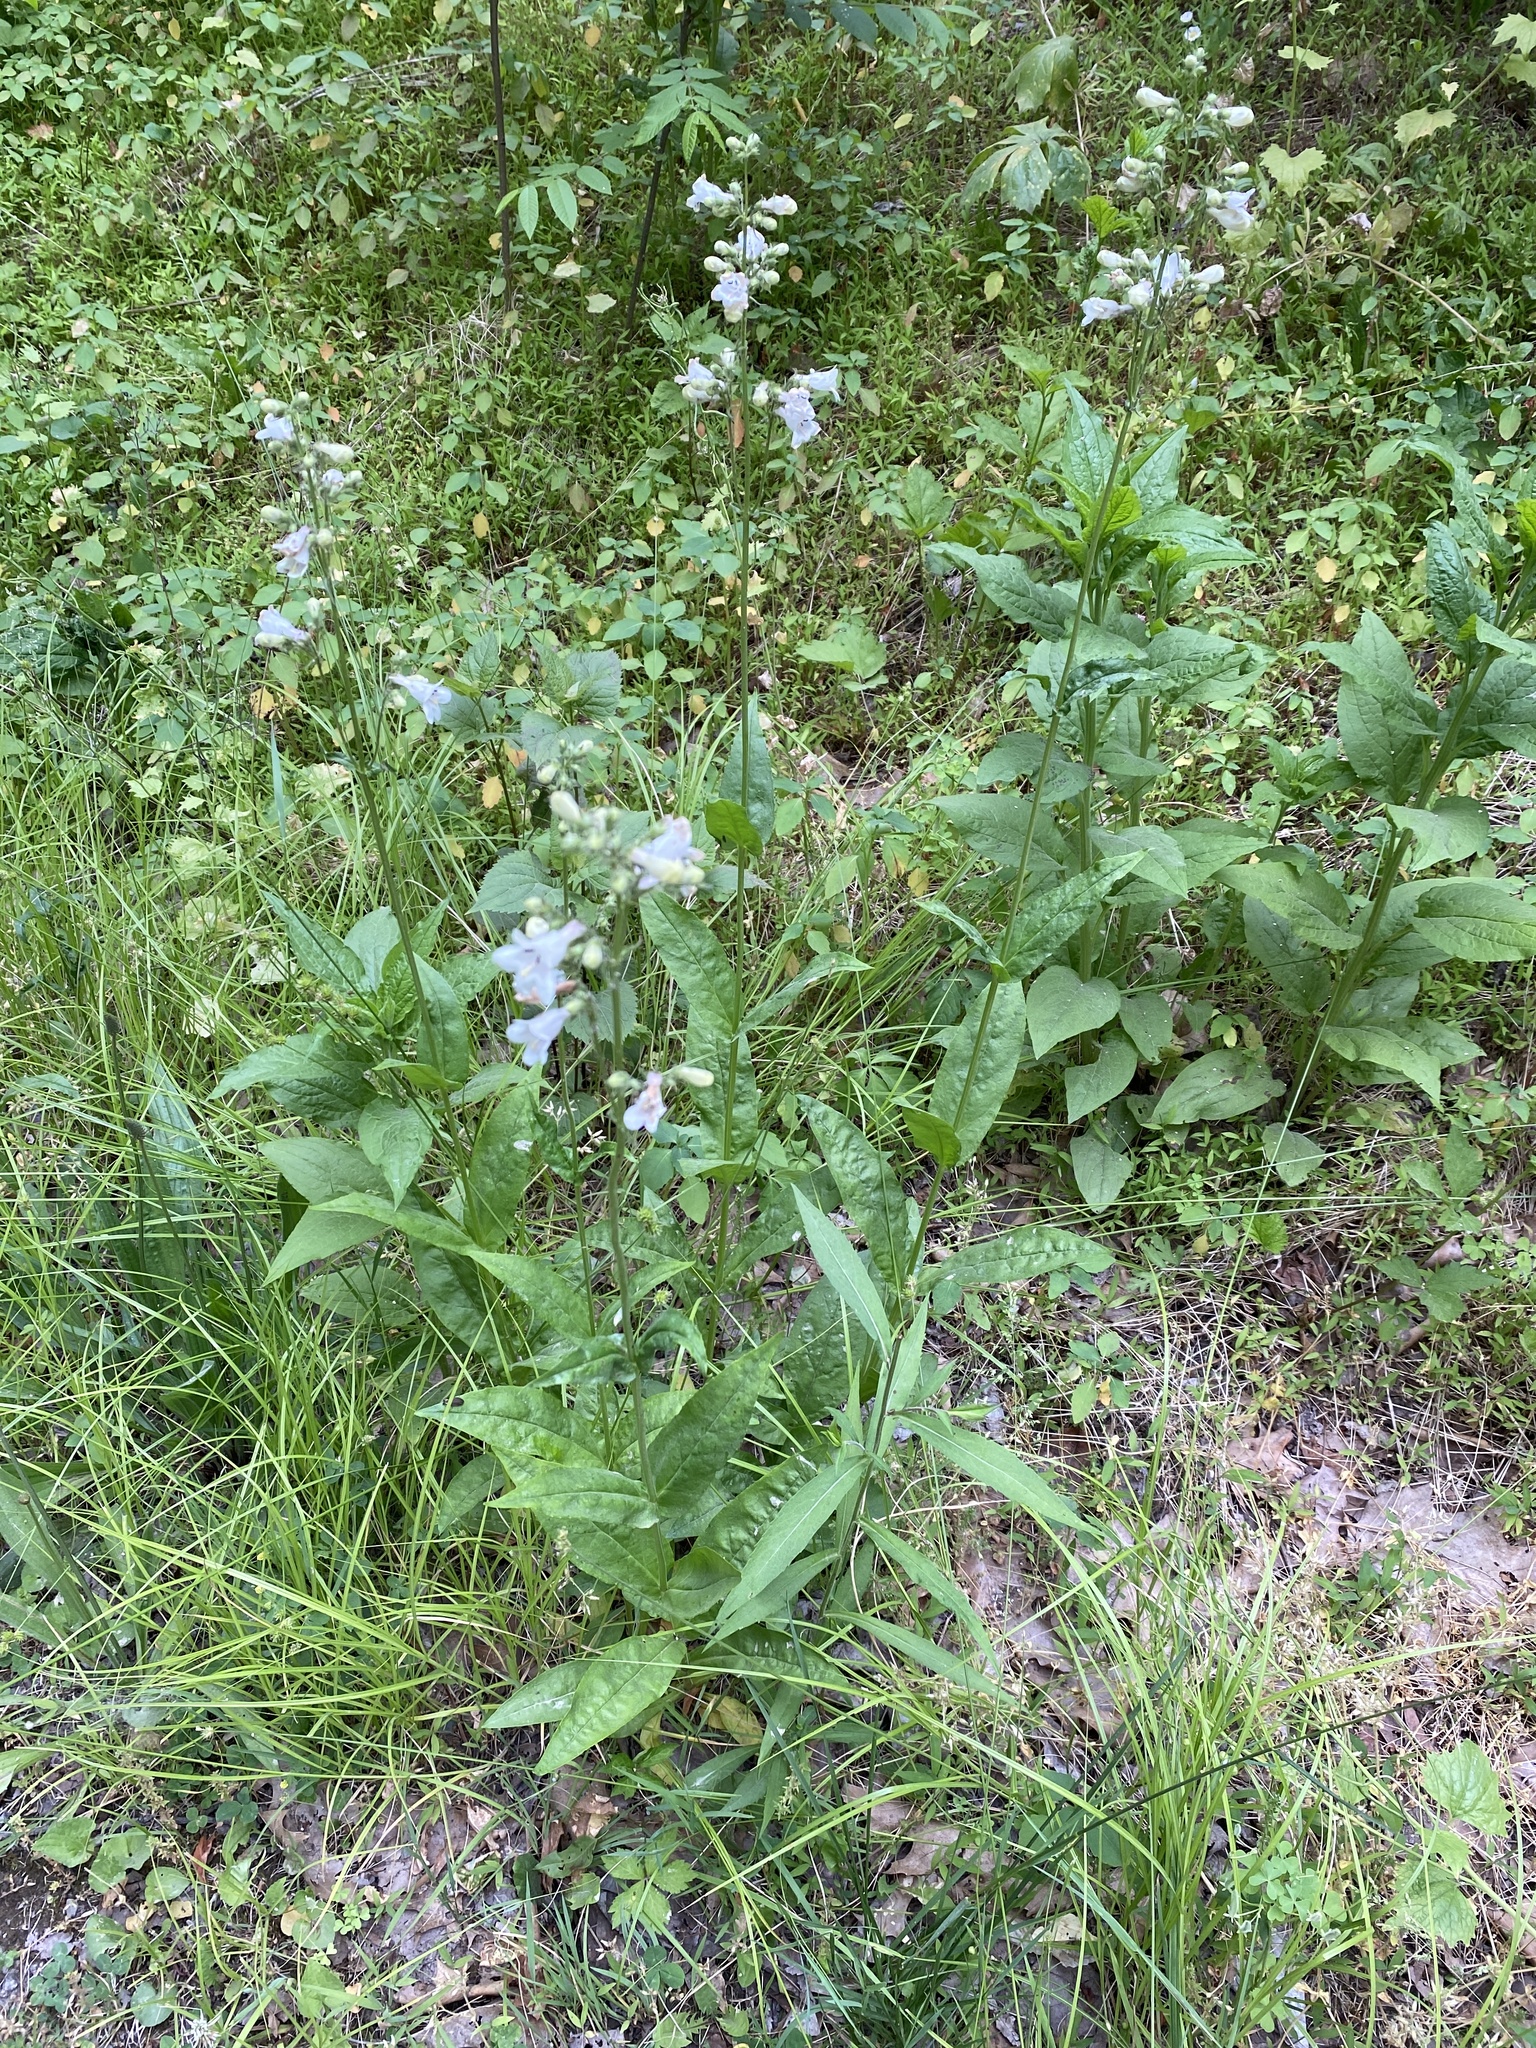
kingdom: Plantae
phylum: Tracheophyta
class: Magnoliopsida
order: Lamiales
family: Plantaginaceae
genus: Penstemon
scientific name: Penstemon digitalis
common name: Foxglove beardtongue
